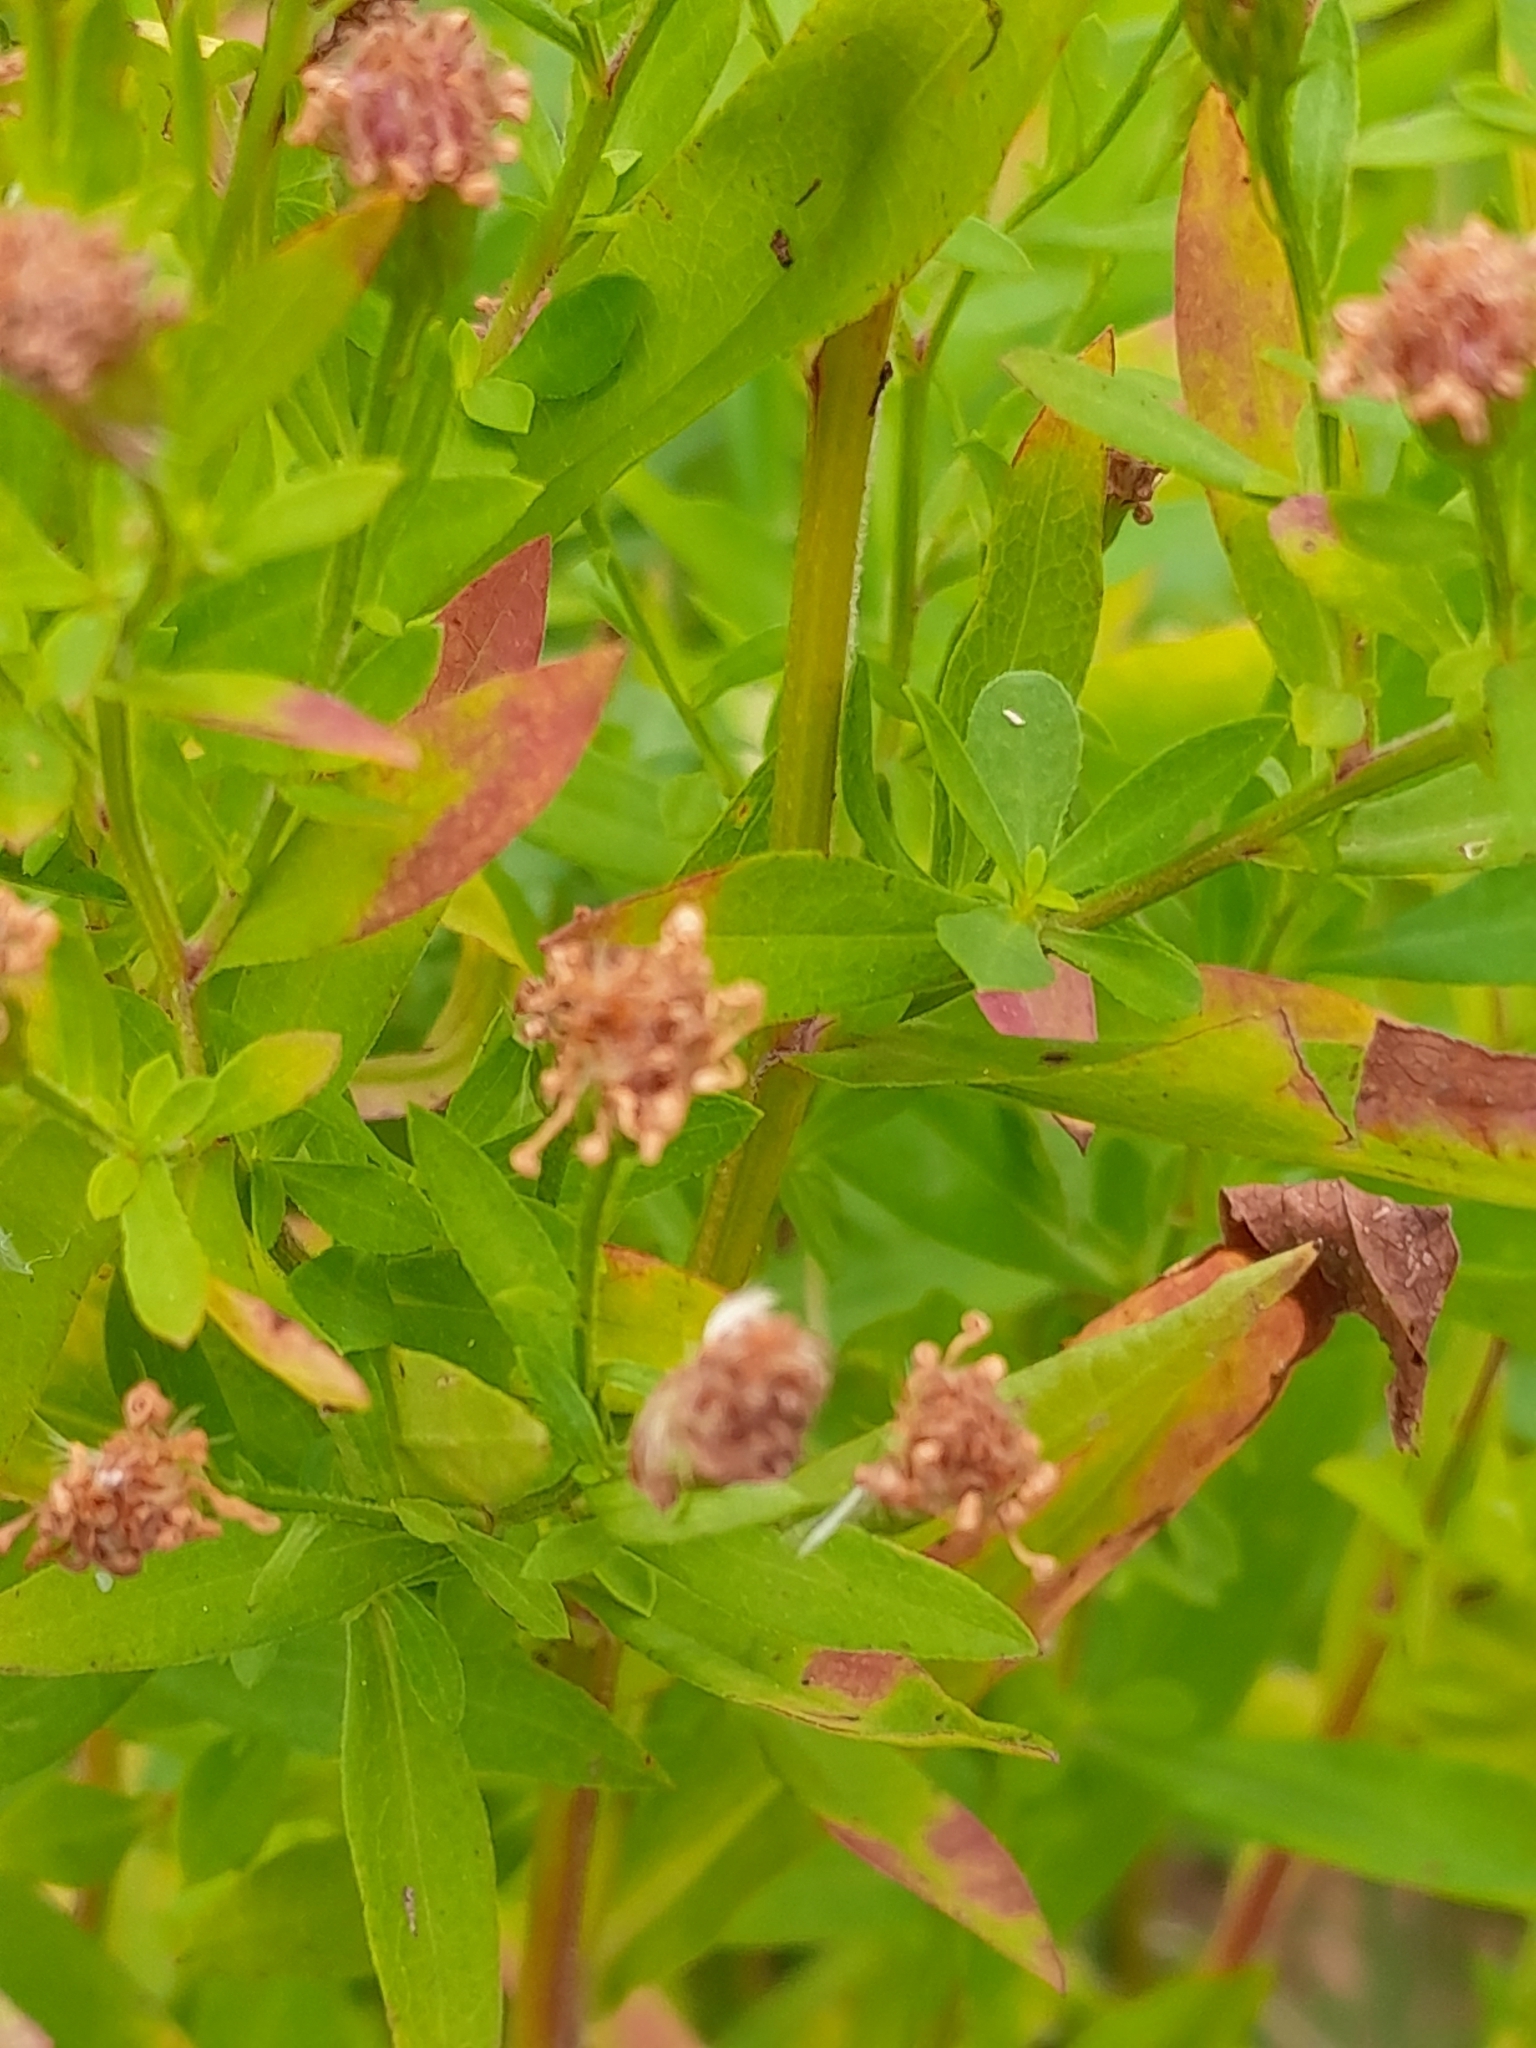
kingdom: Plantae
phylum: Tracheophyta
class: Magnoliopsida
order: Asterales
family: Asteraceae
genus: Symphyotrichum
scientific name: Symphyotrichum lanceolatum
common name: Panicled aster
